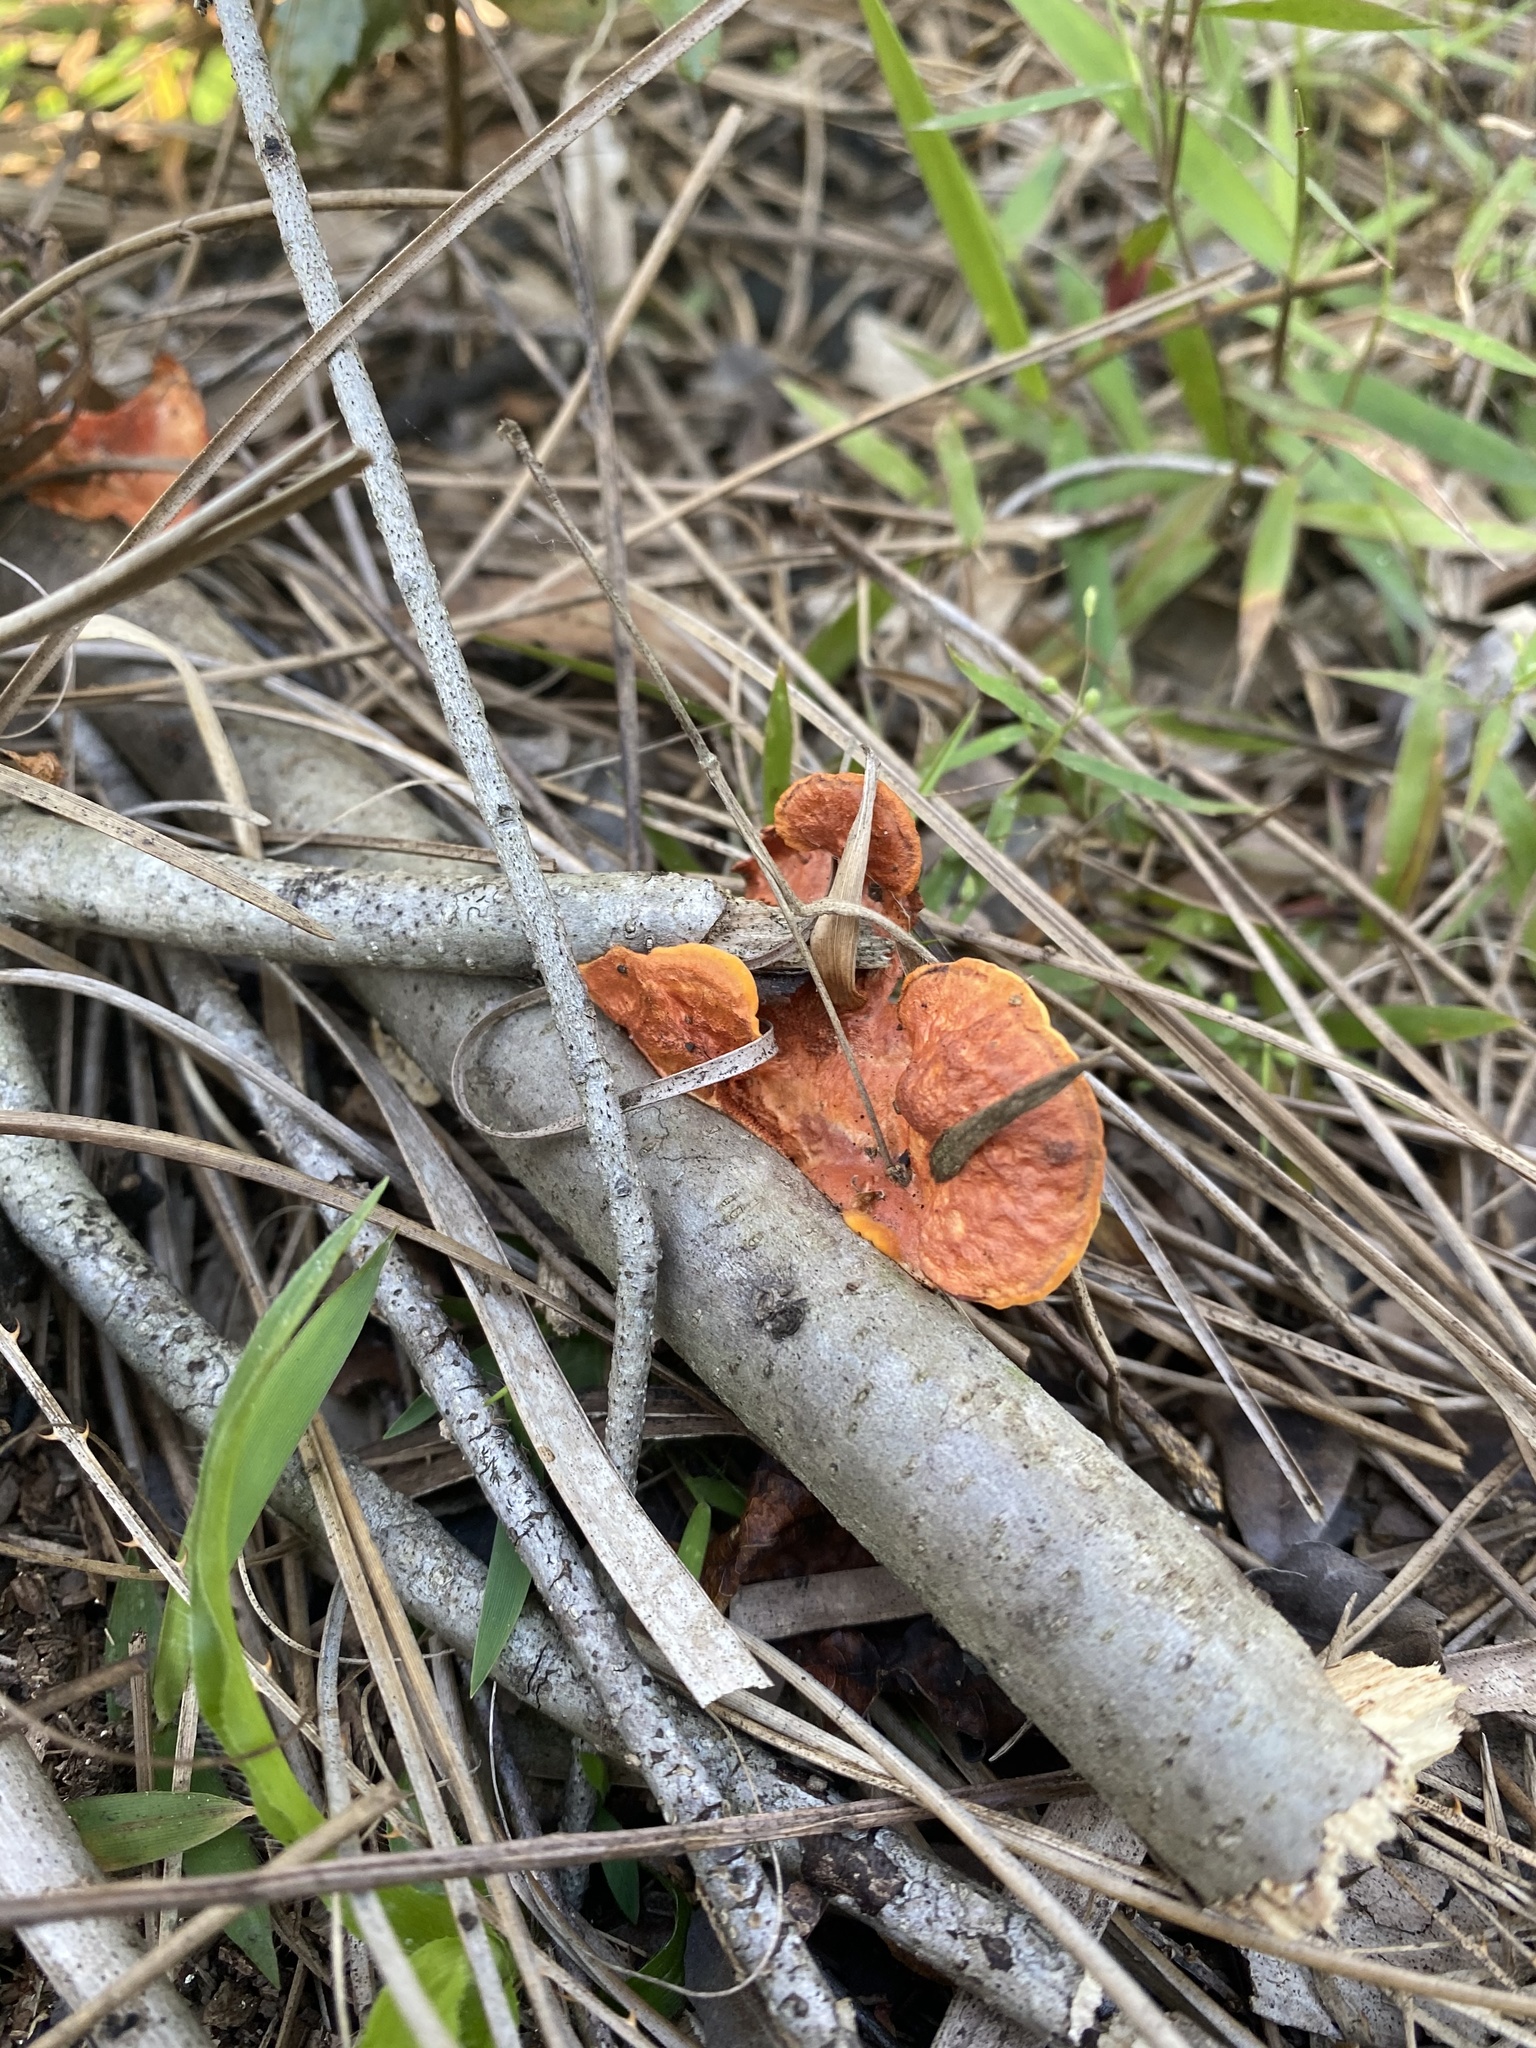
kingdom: Fungi
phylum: Basidiomycota
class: Agaricomycetes
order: Polyporales
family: Polyporaceae
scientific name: Polyporaceae
